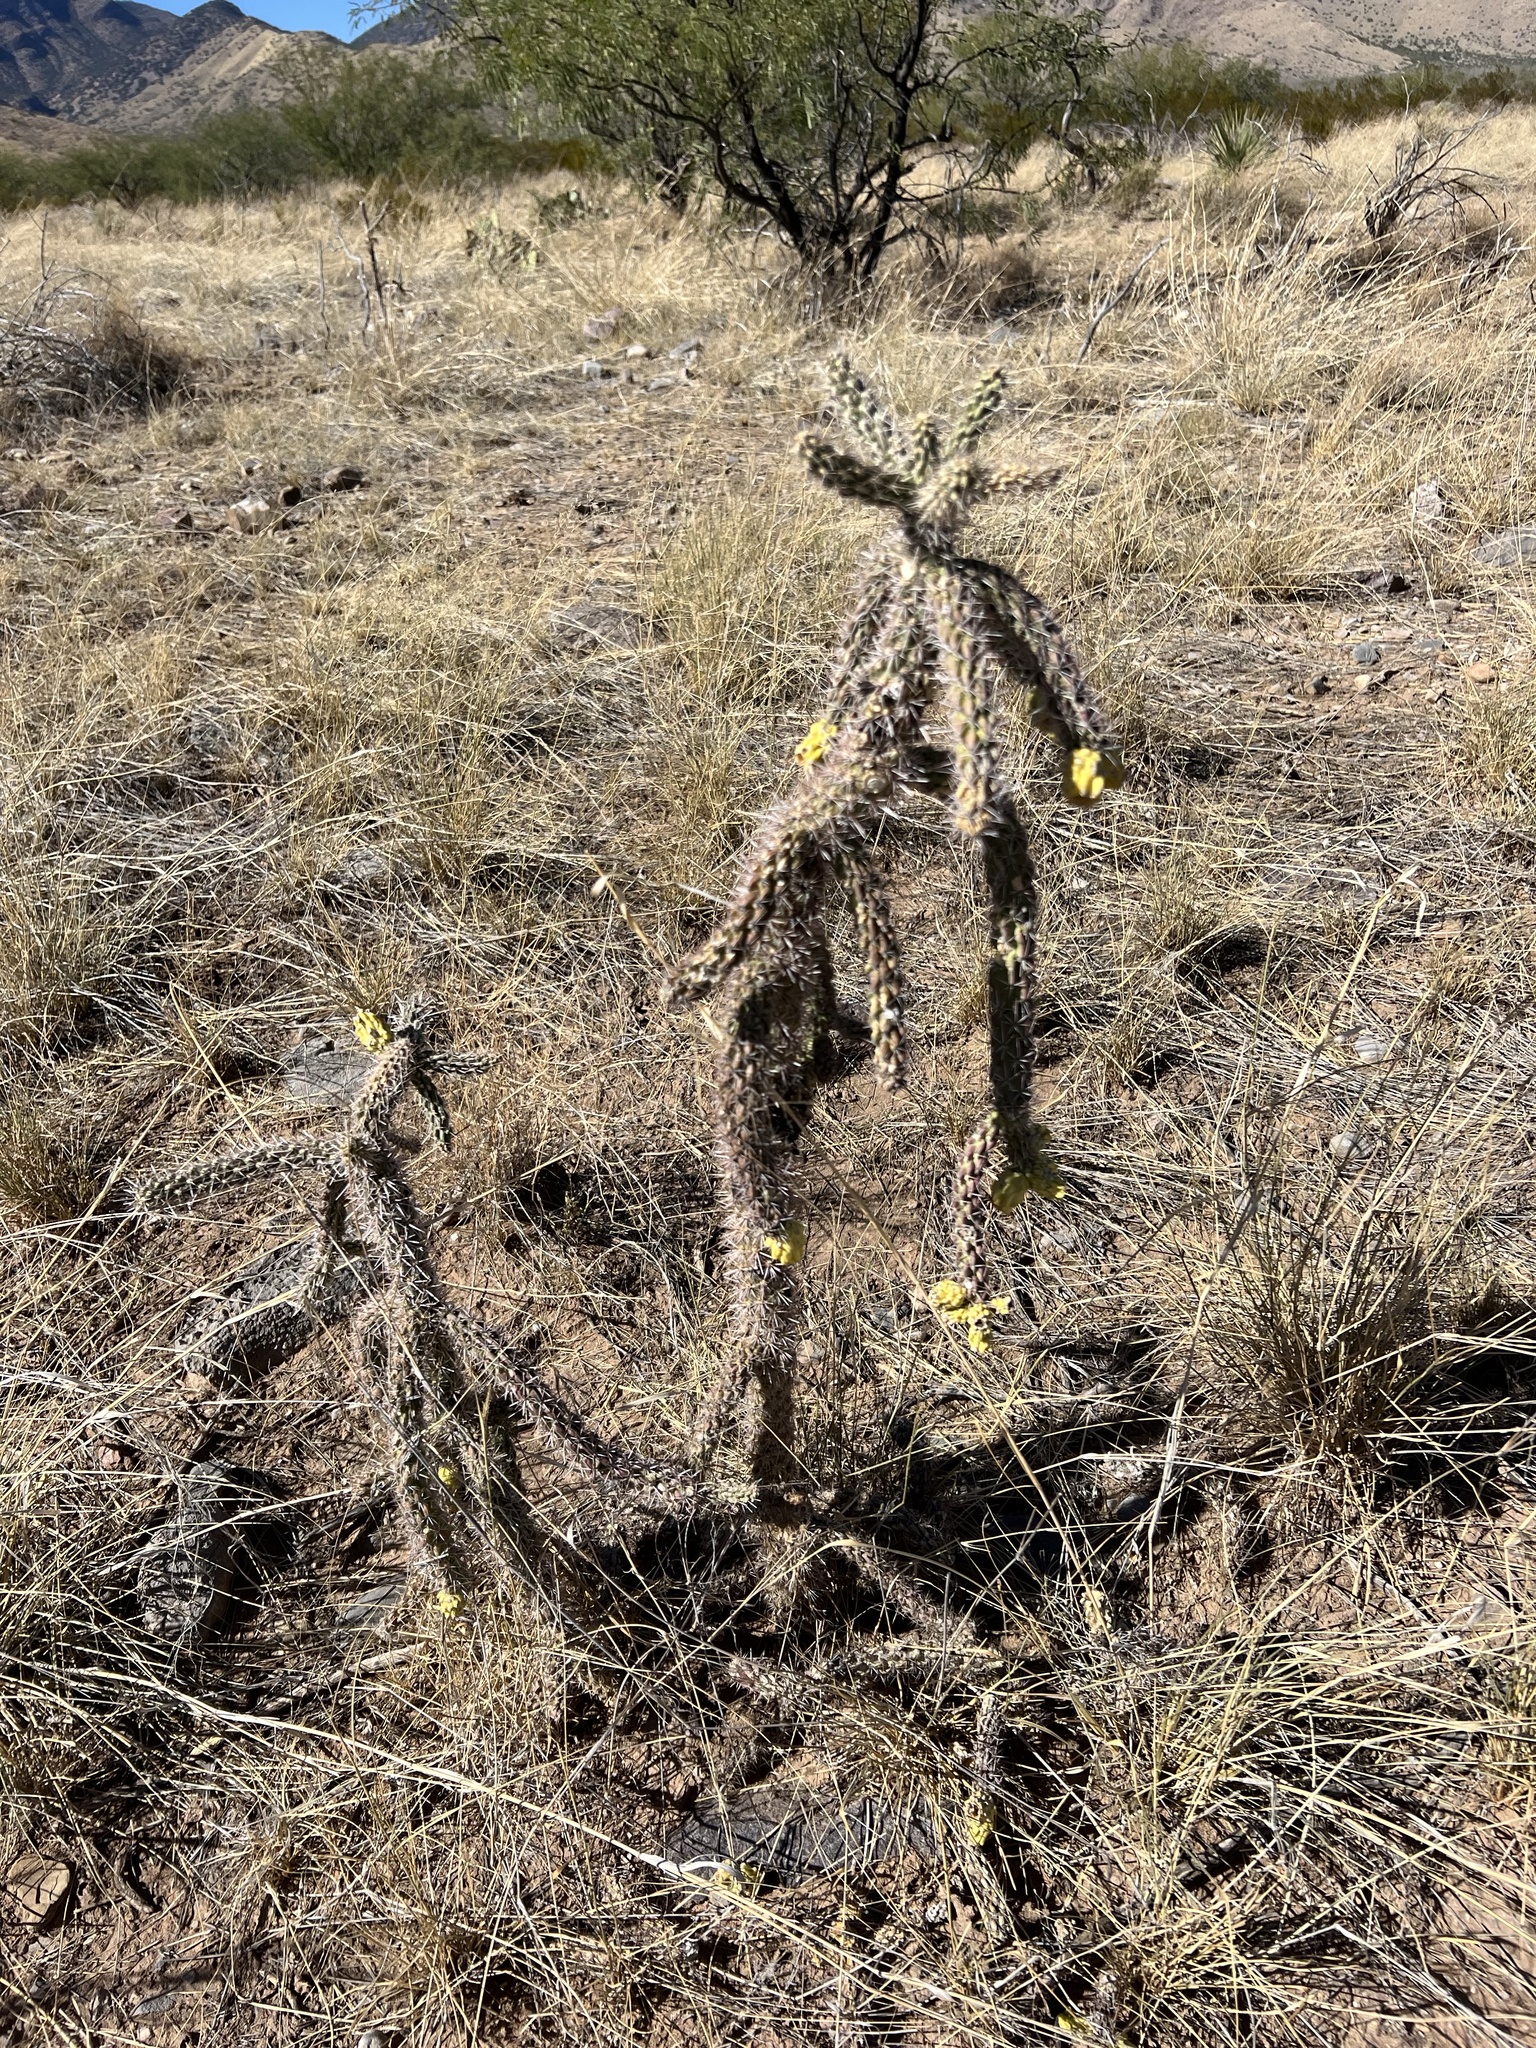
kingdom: Plantae
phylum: Tracheophyta
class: Magnoliopsida
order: Caryophyllales
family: Cactaceae
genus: Cylindropuntia
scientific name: Cylindropuntia imbricata
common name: Candelabrum cactus
